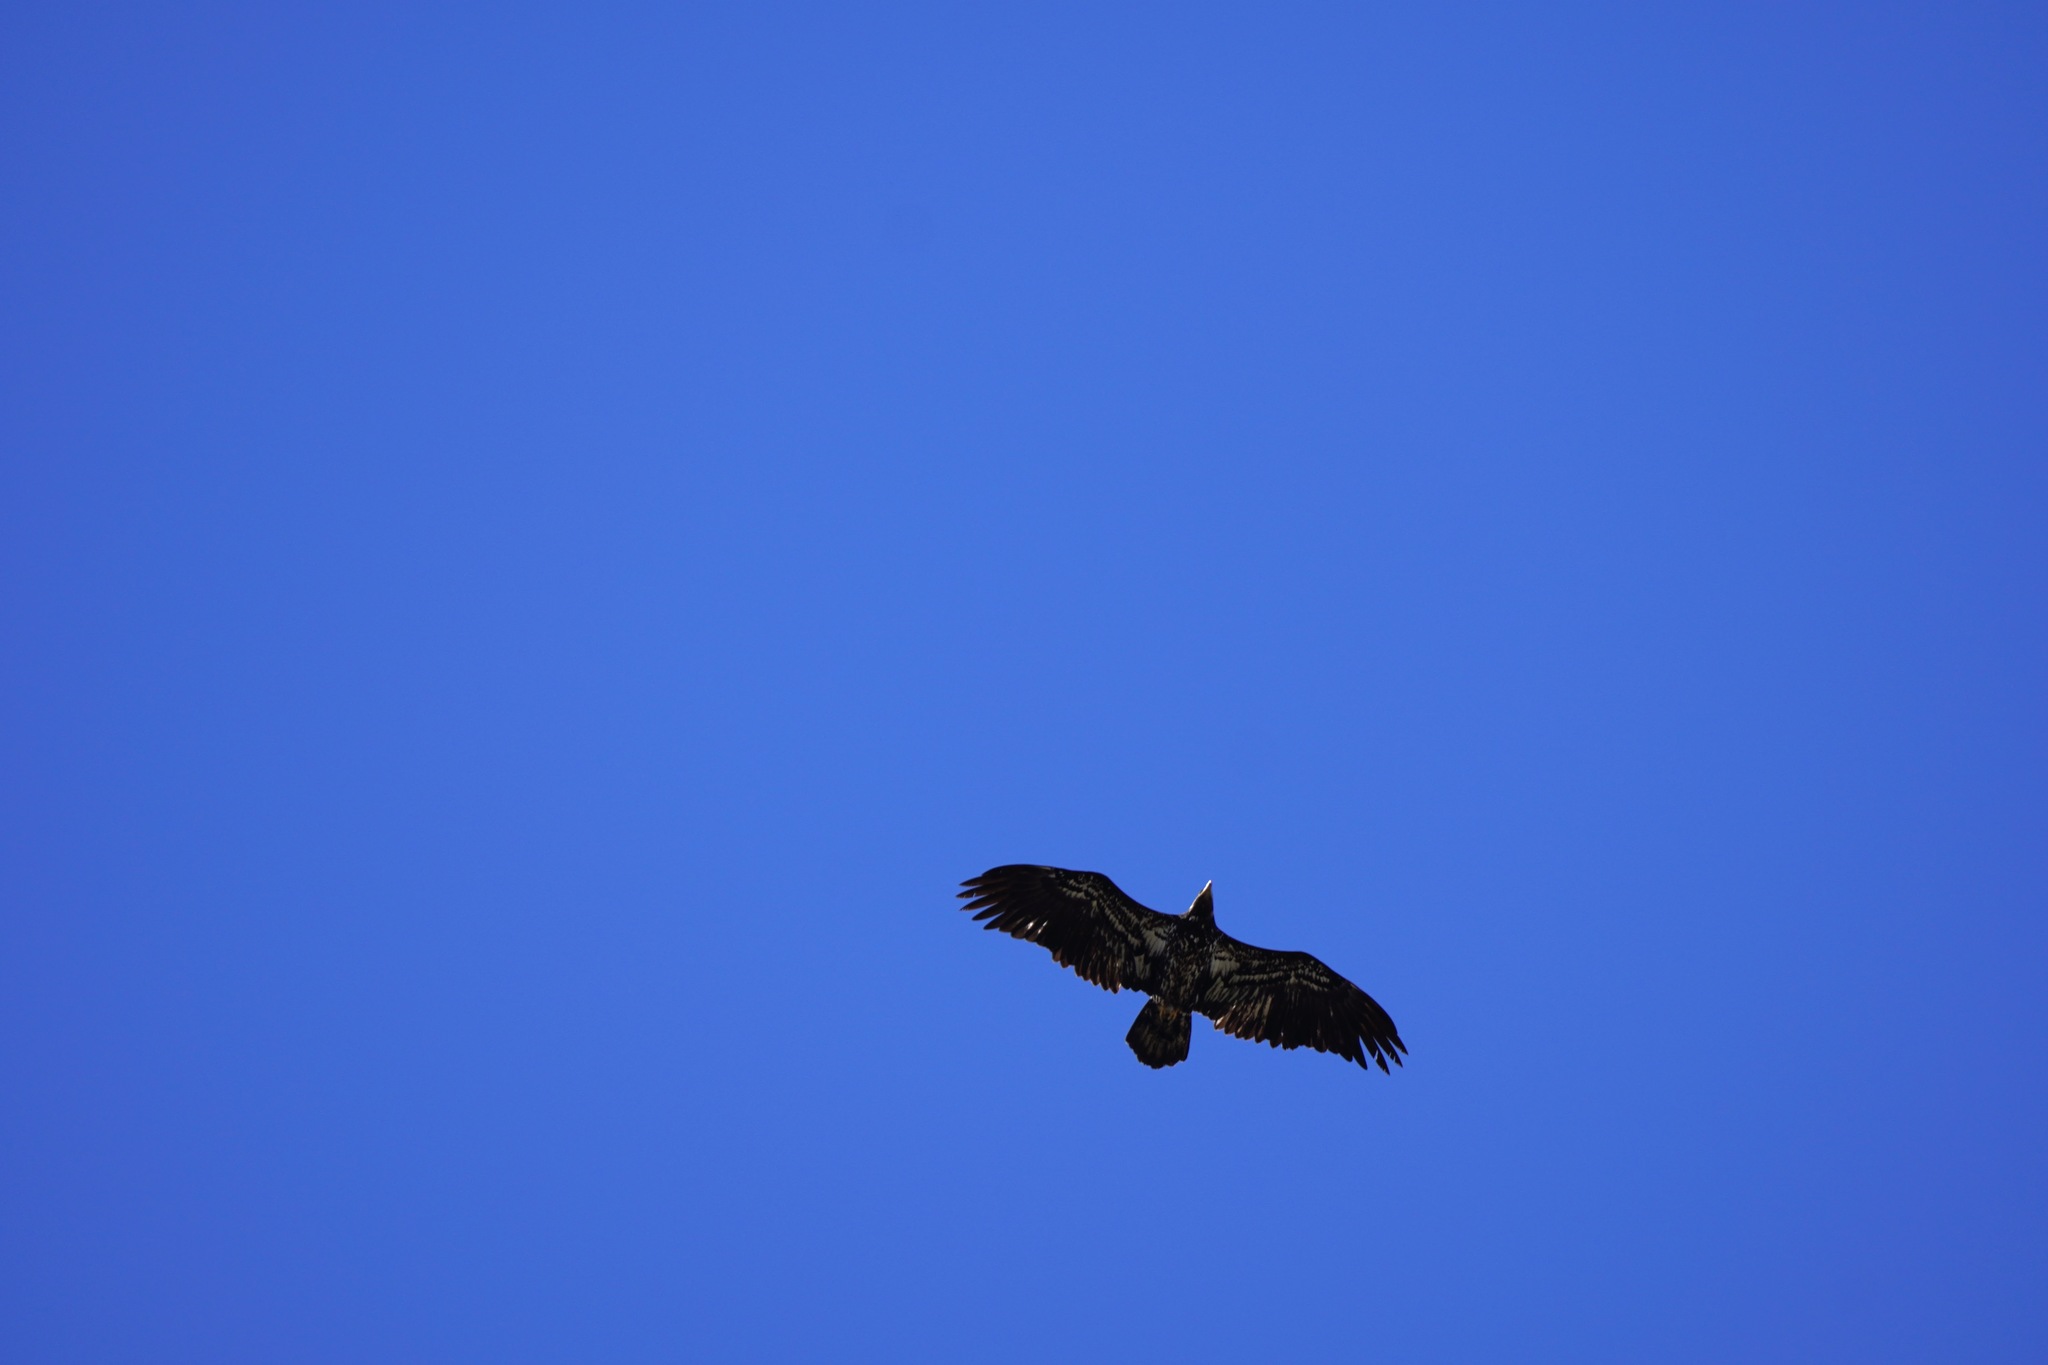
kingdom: Animalia
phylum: Chordata
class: Aves
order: Accipitriformes
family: Accipitridae
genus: Haliaeetus
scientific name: Haliaeetus leucocephalus
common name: Bald eagle
